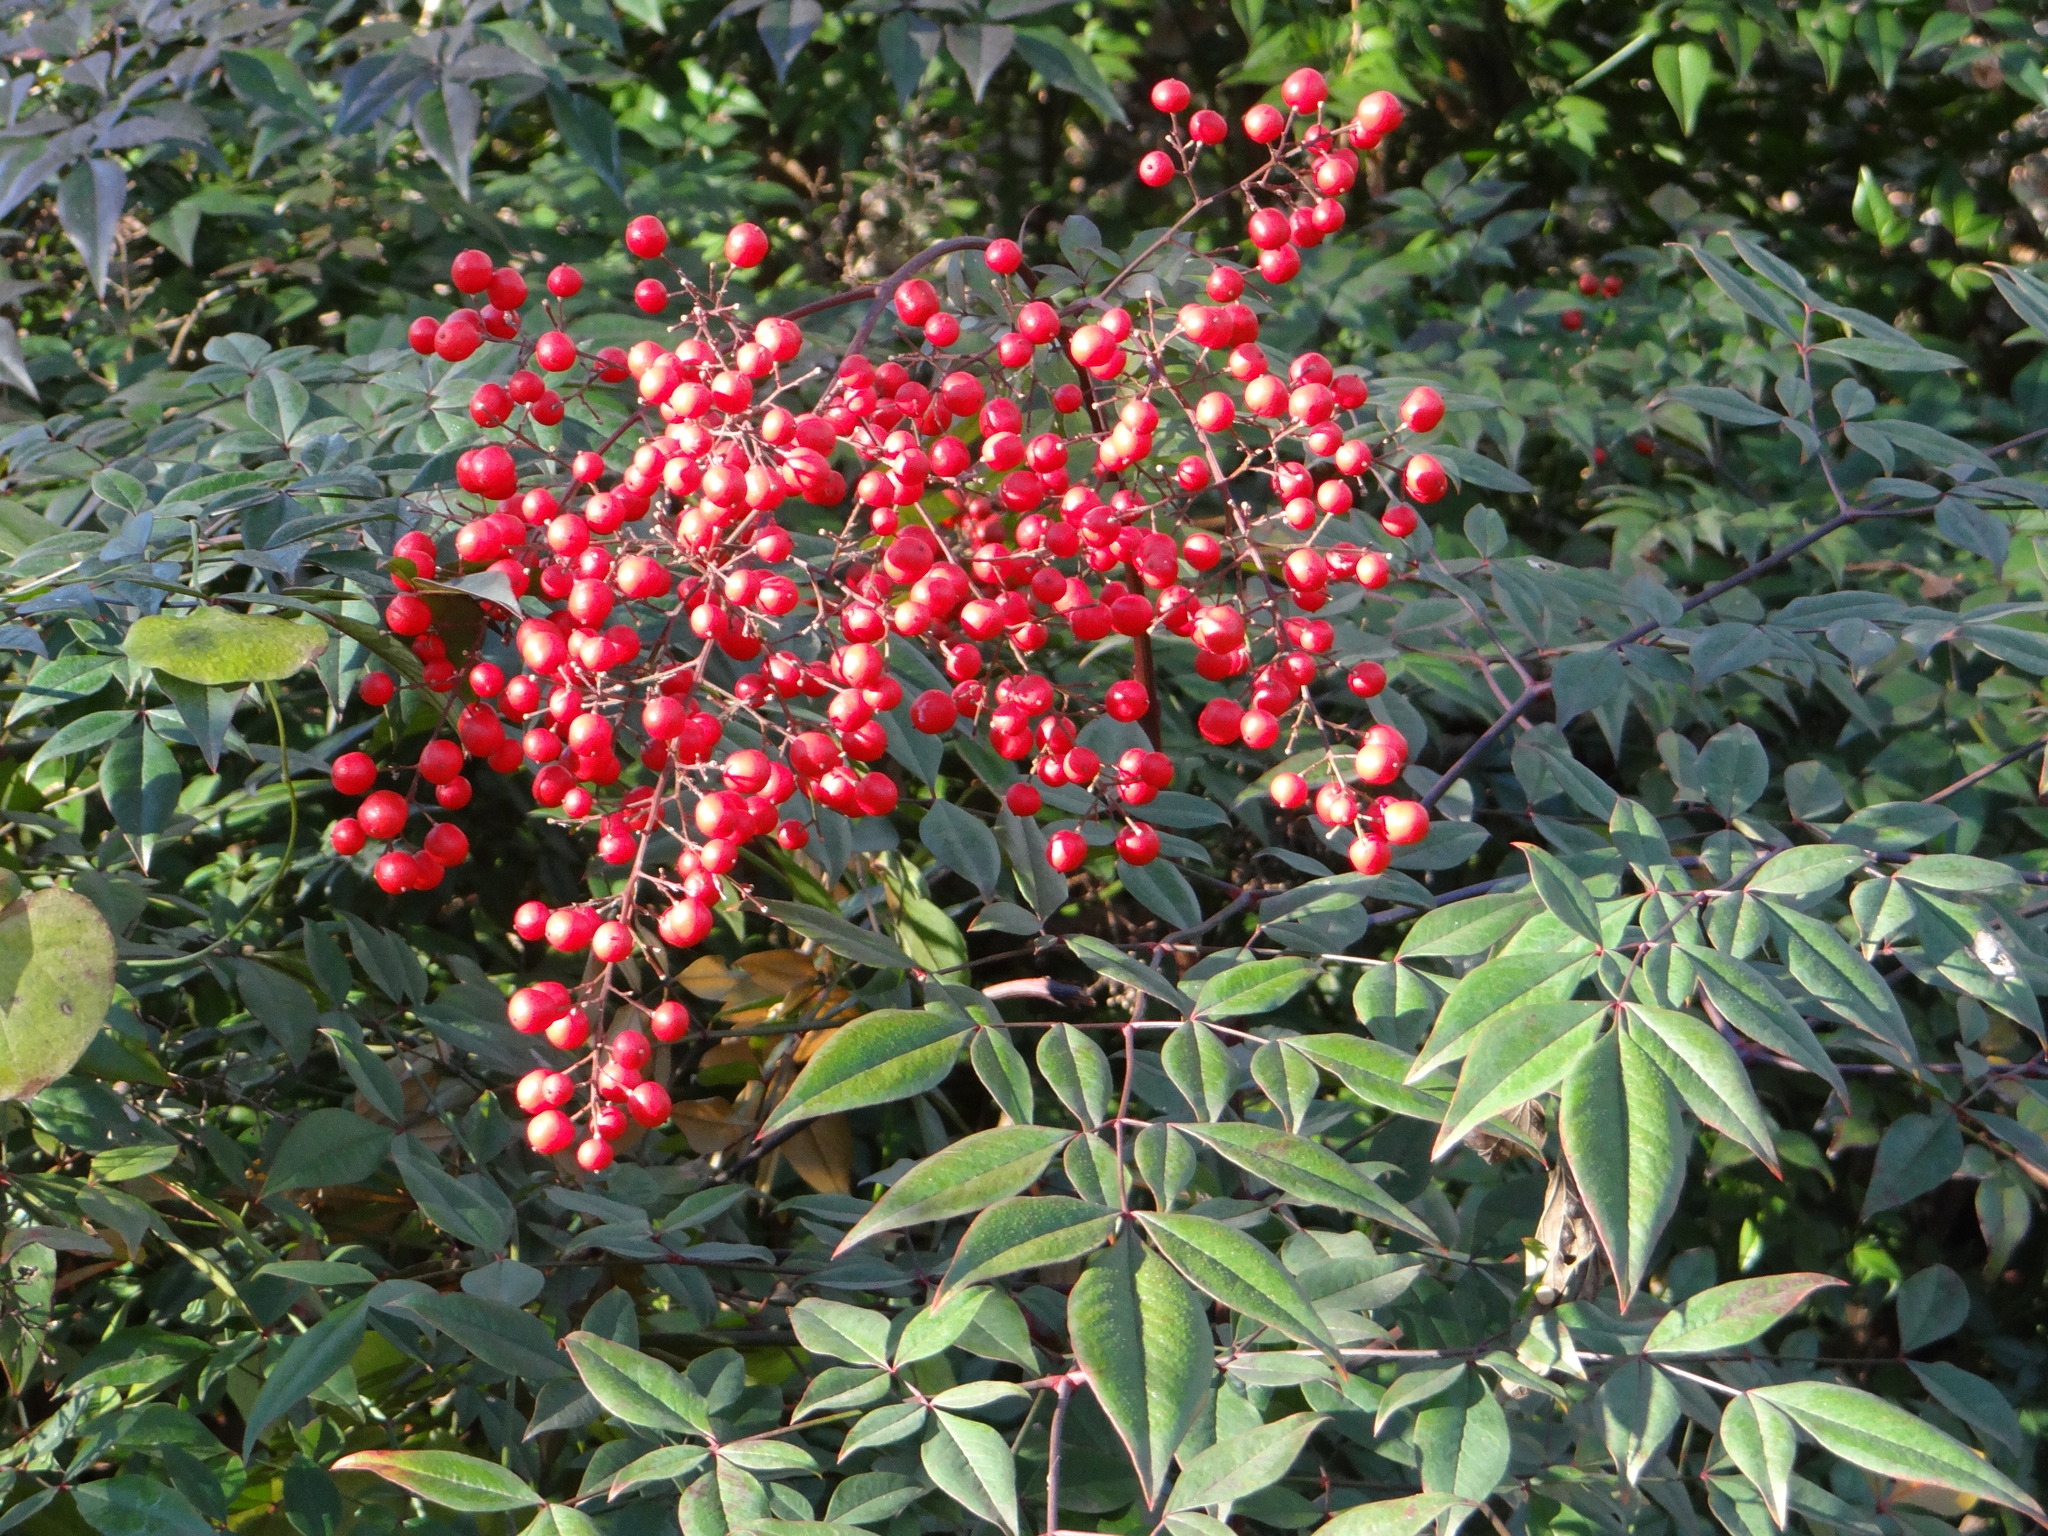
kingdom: Plantae
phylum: Tracheophyta
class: Magnoliopsida
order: Ranunculales
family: Berberidaceae
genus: Nandina
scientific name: Nandina domestica
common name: Sacred bamboo
